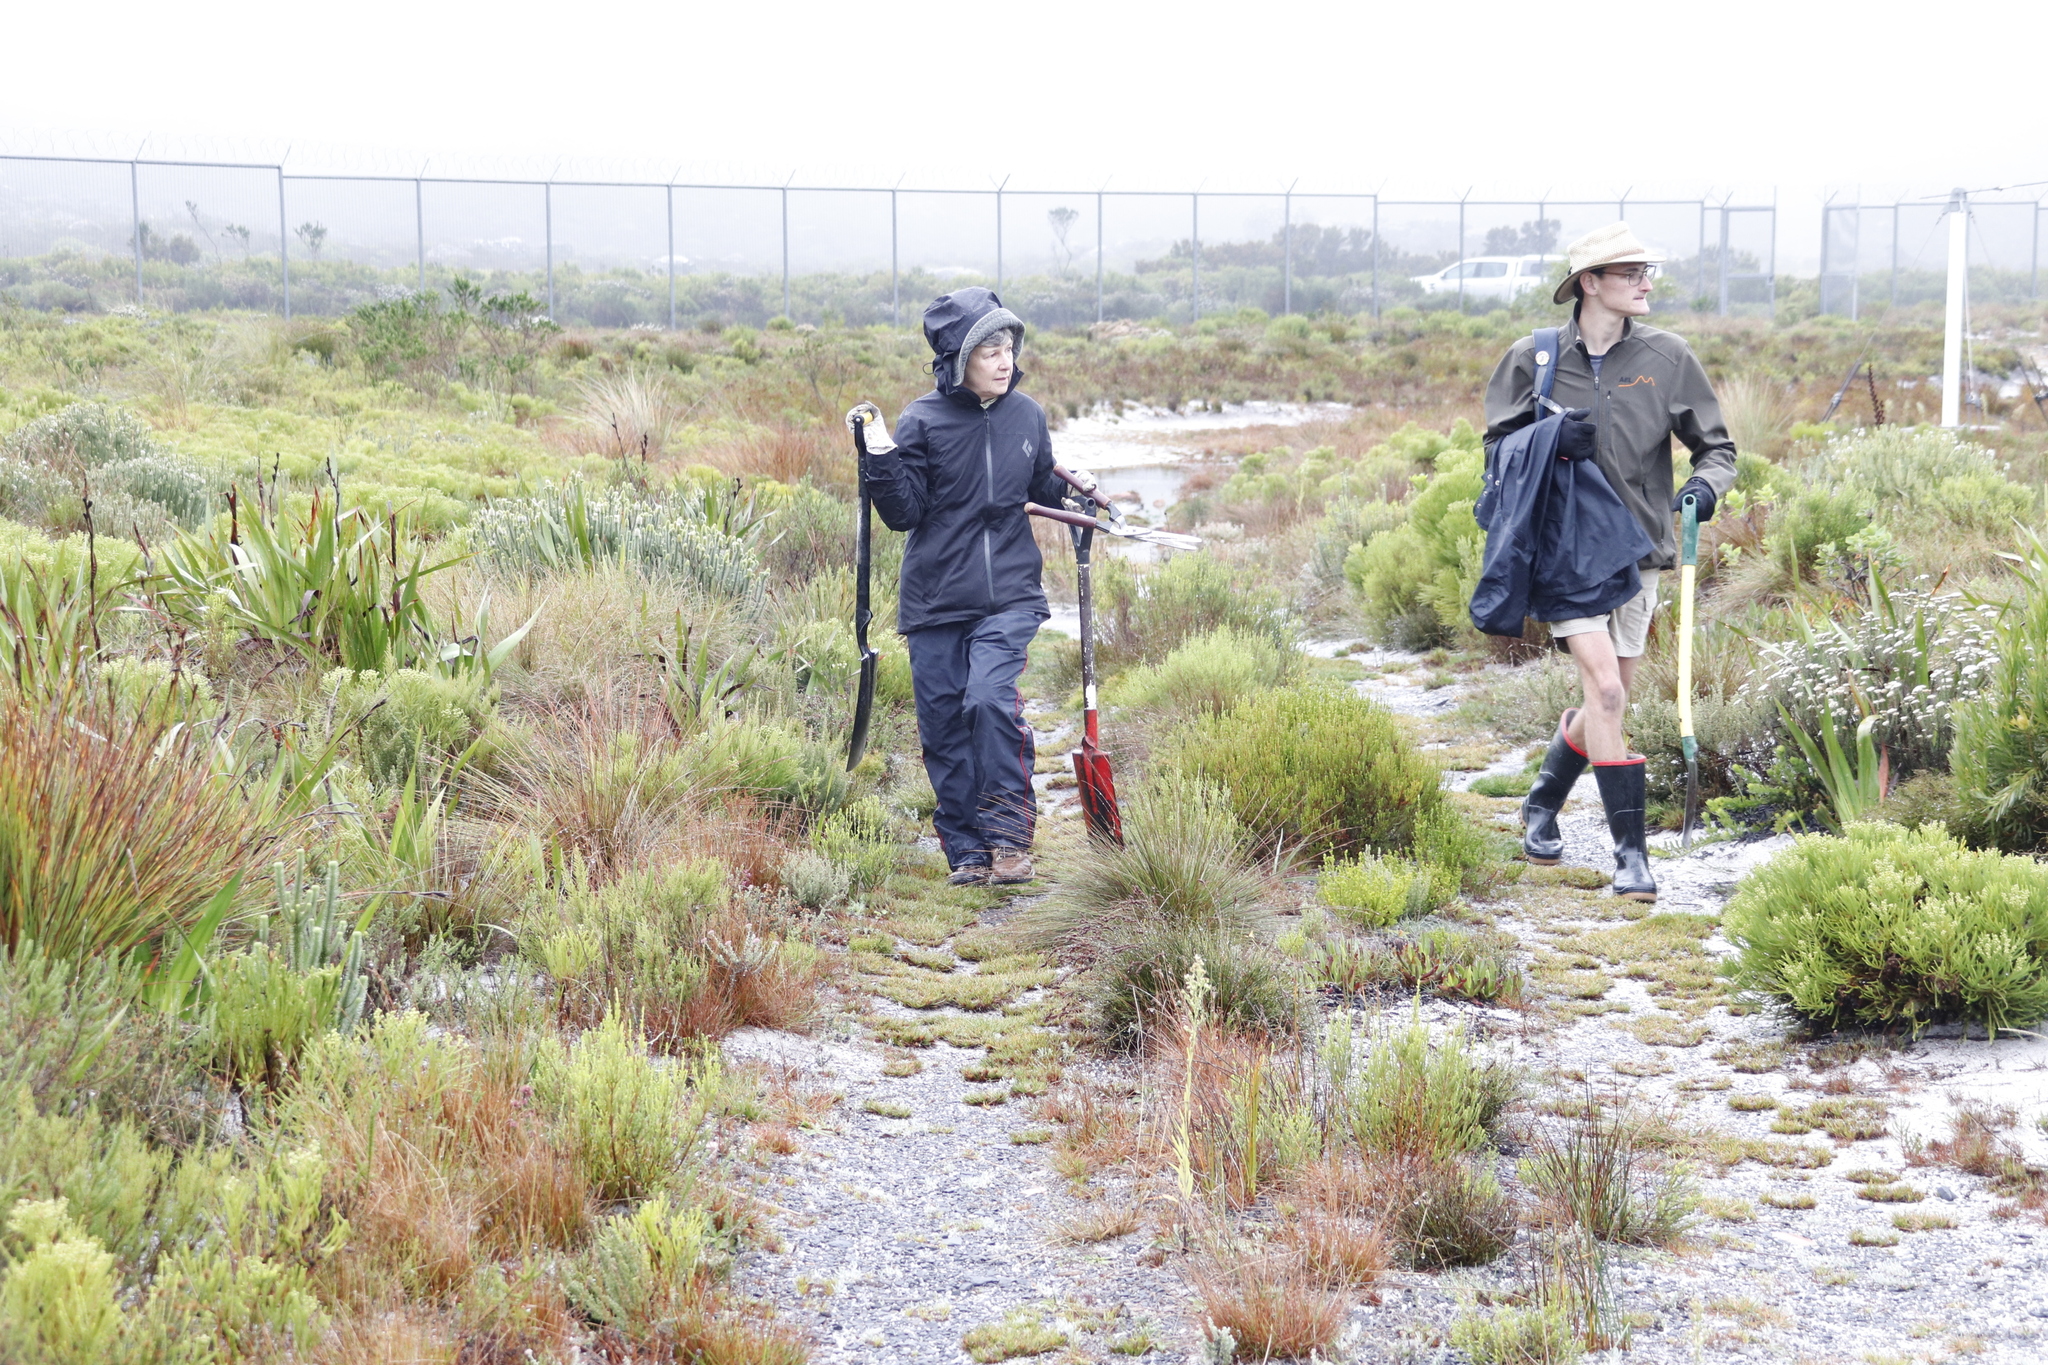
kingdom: Plantae
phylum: Tracheophyta
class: Liliopsida
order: Poales
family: Poaceae
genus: Cortaderia
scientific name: Cortaderia selloana
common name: Uruguayan pampas grass
